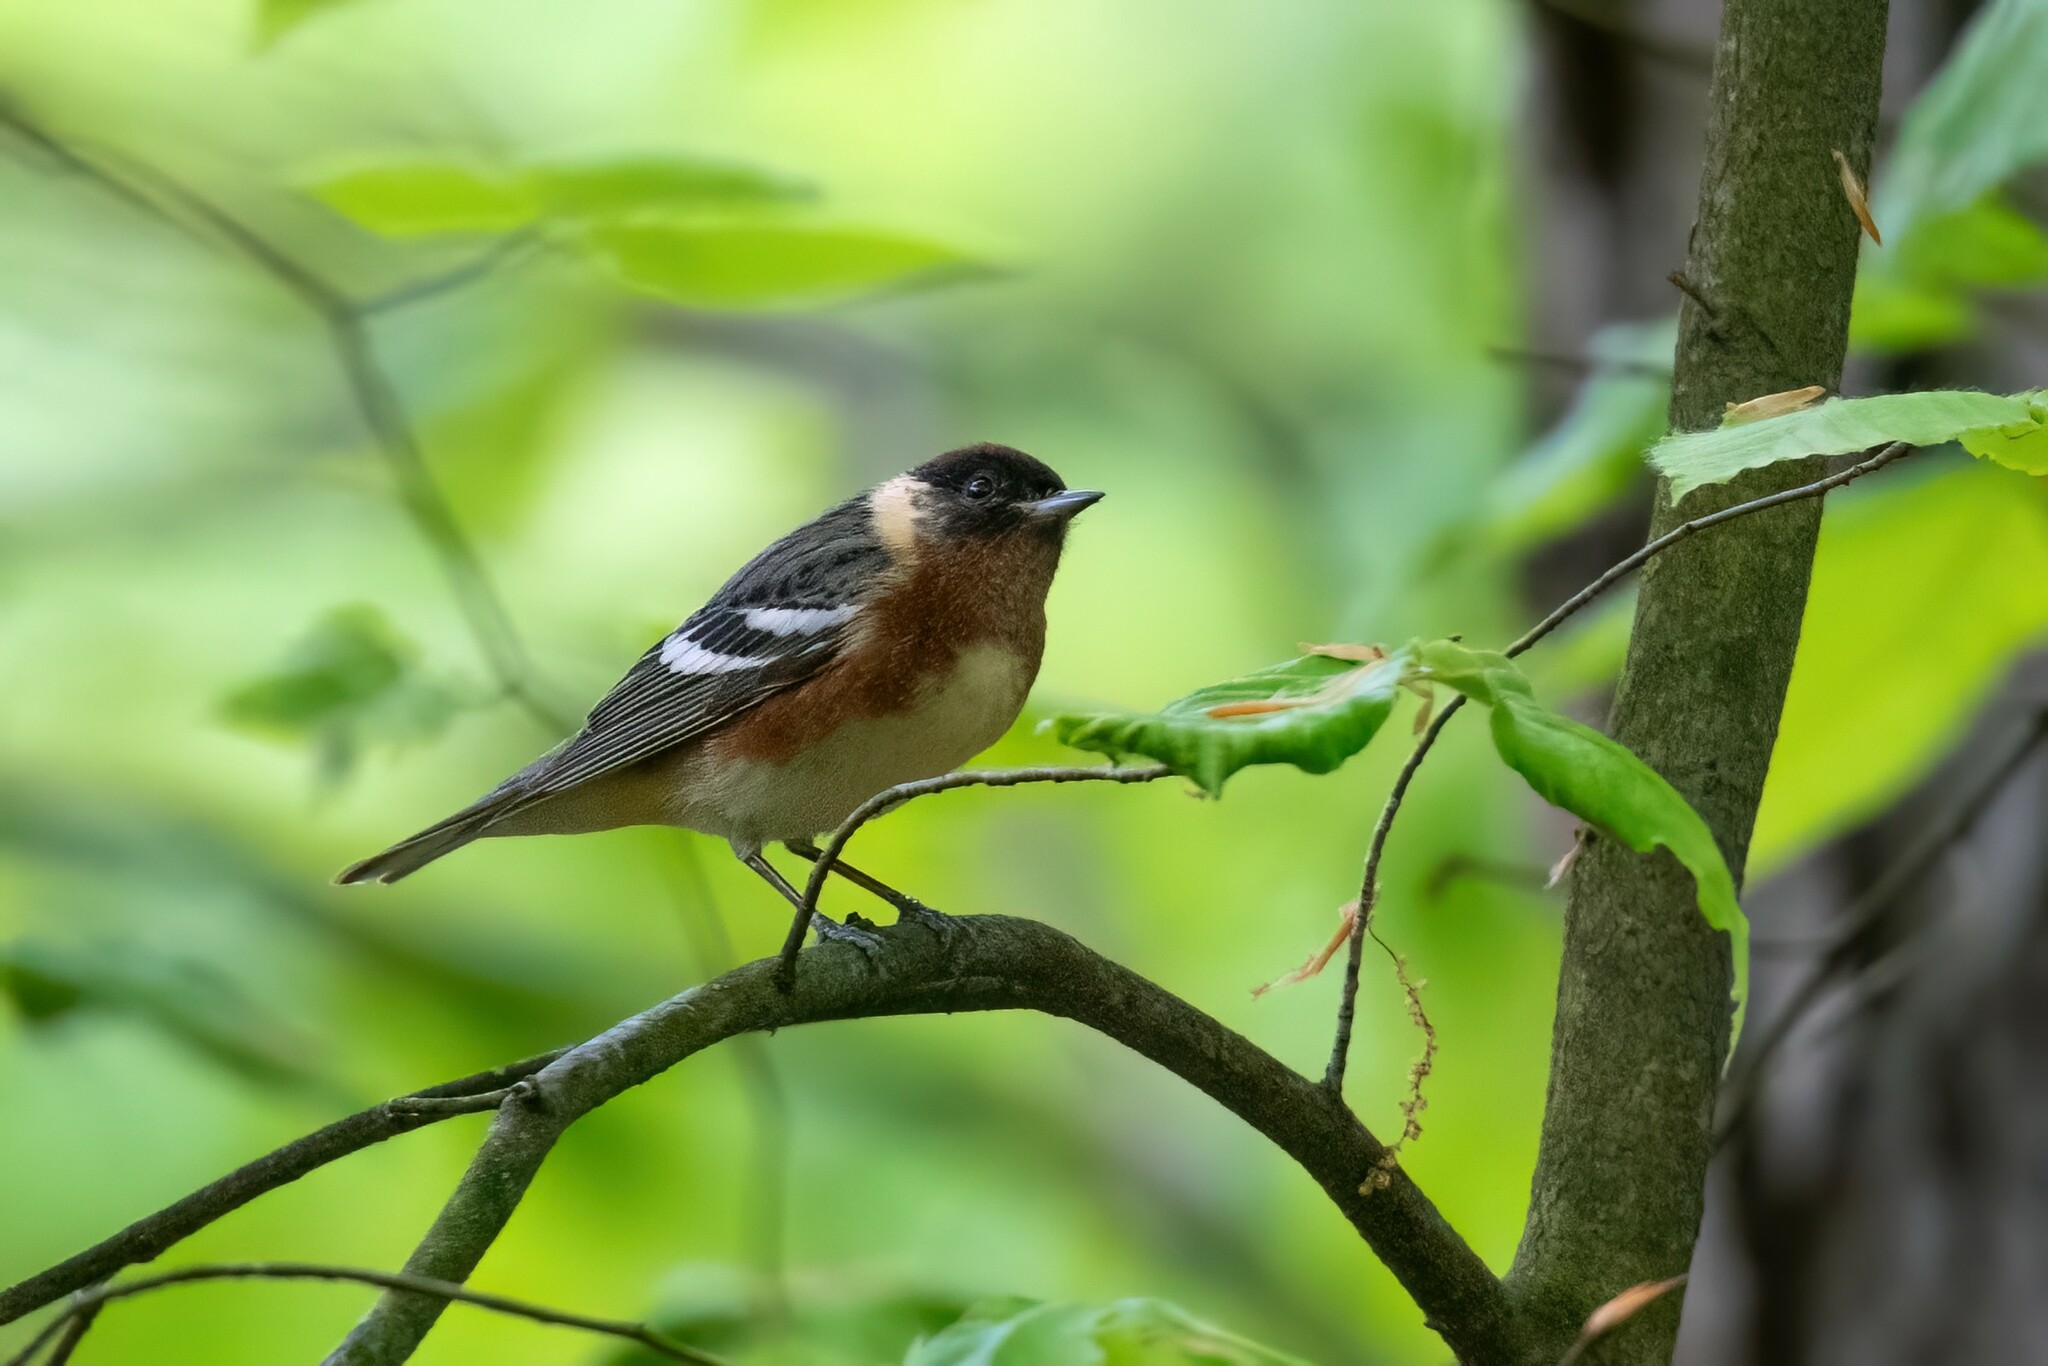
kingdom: Animalia
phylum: Chordata
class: Aves
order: Passeriformes
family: Parulidae
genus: Setophaga
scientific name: Setophaga castanea
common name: Bay-breasted warbler
